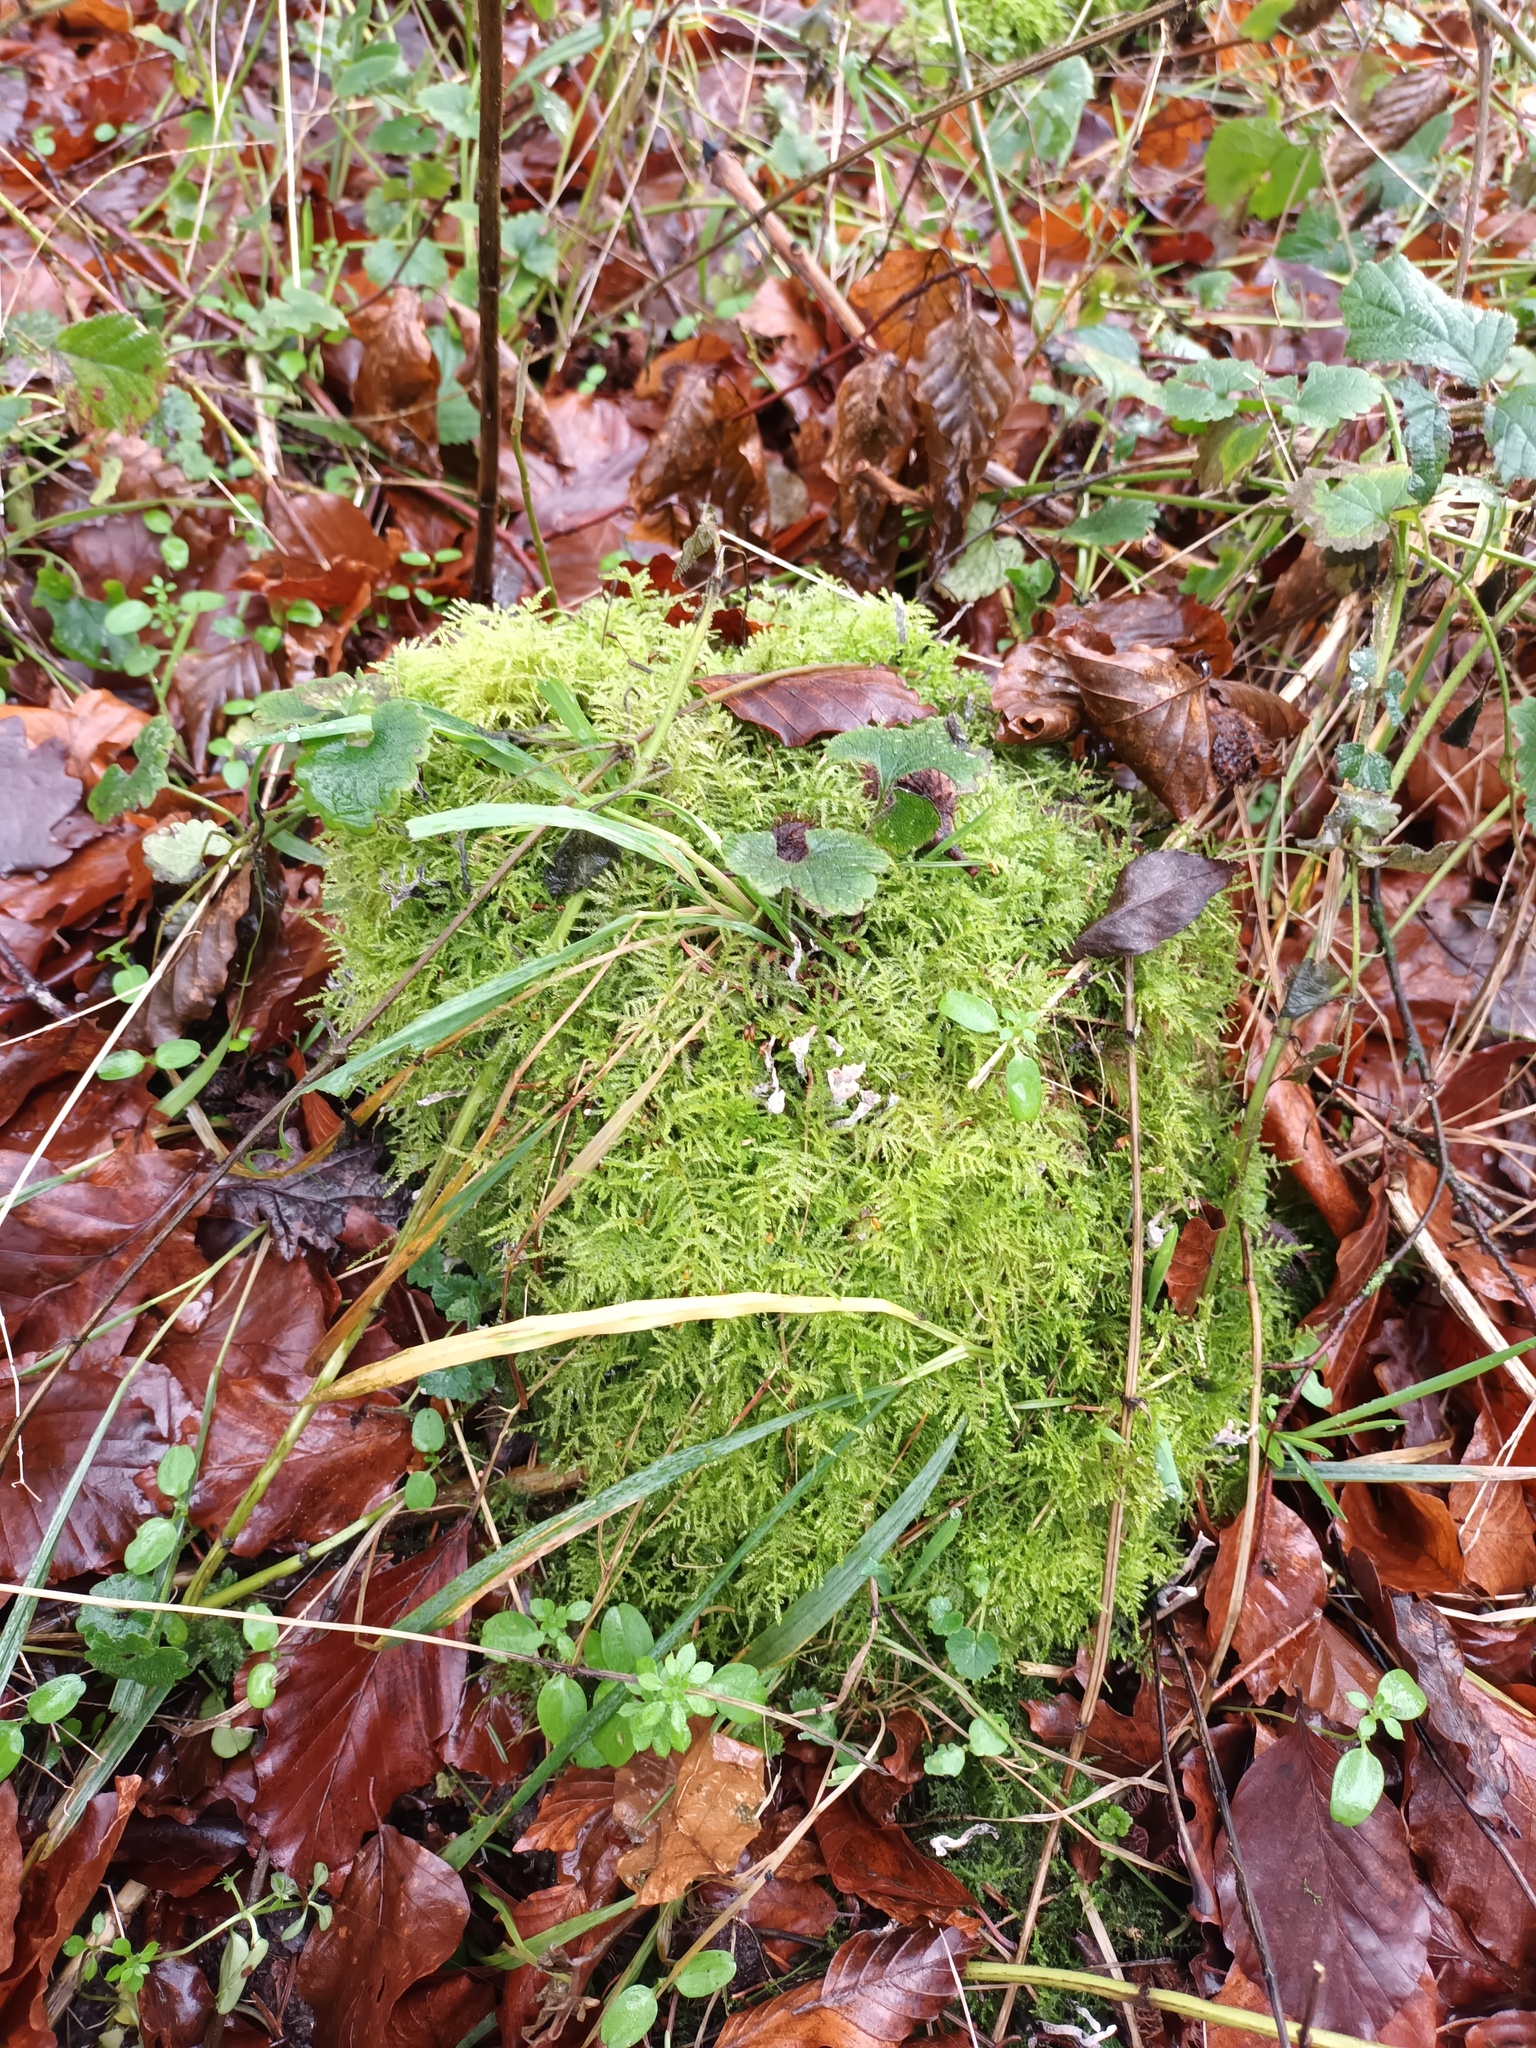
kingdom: Plantae
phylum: Bryophyta
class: Bryopsida
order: Hypnales
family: Brachytheciaceae
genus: Kindbergia
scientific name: Kindbergia praelonga
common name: Slender beaked moss
